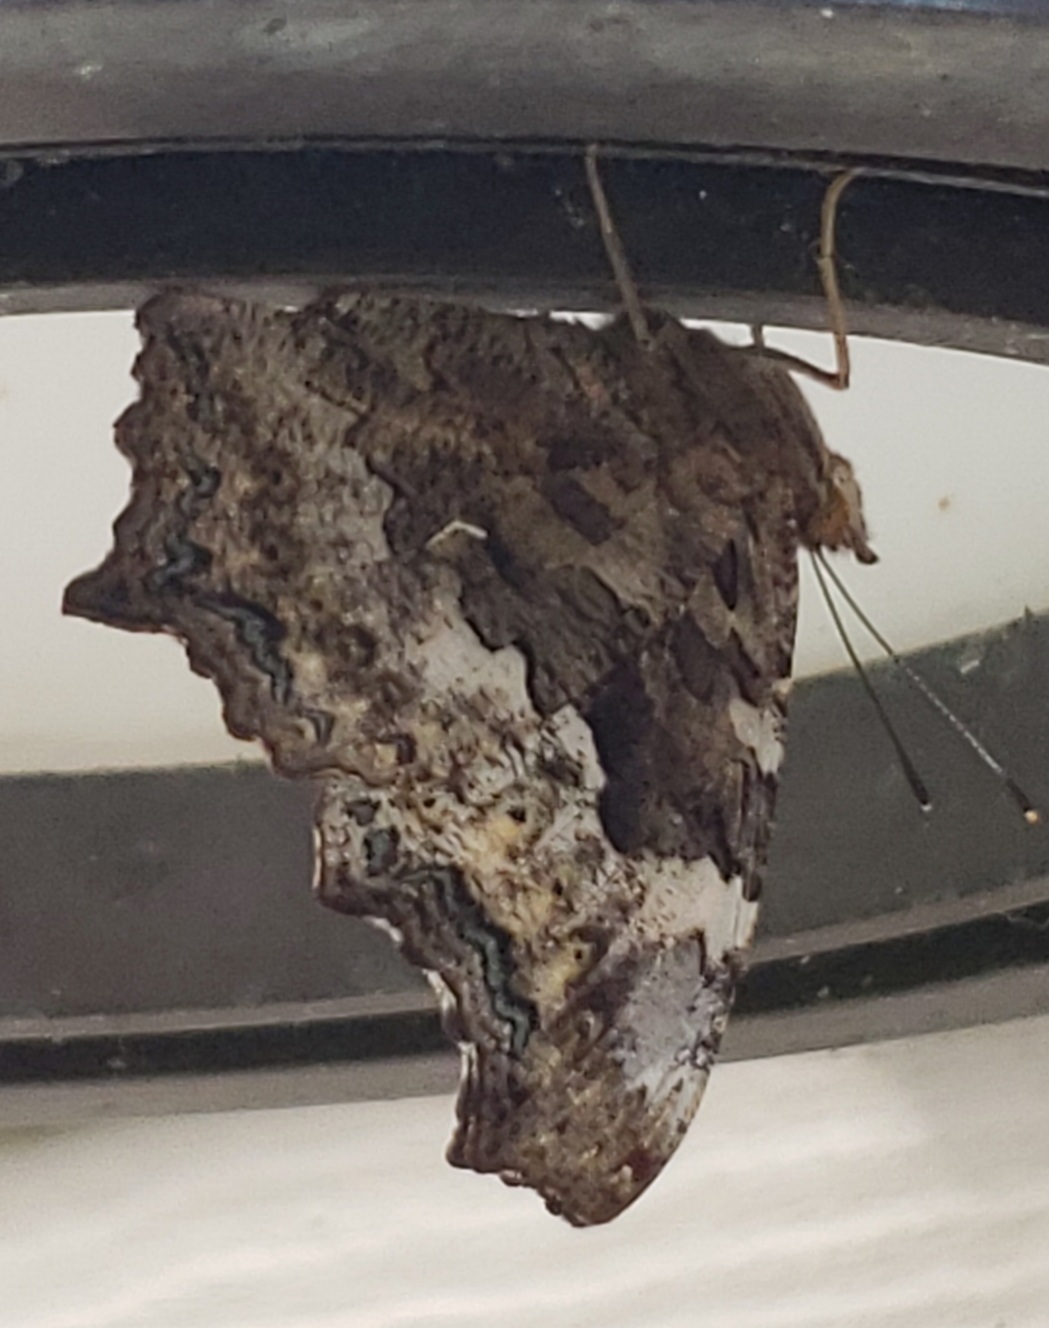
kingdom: Animalia
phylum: Arthropoda
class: Insecta
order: Lepidoptera
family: Nymphalidae
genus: Polygonia
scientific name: Polygonia vaualbum
